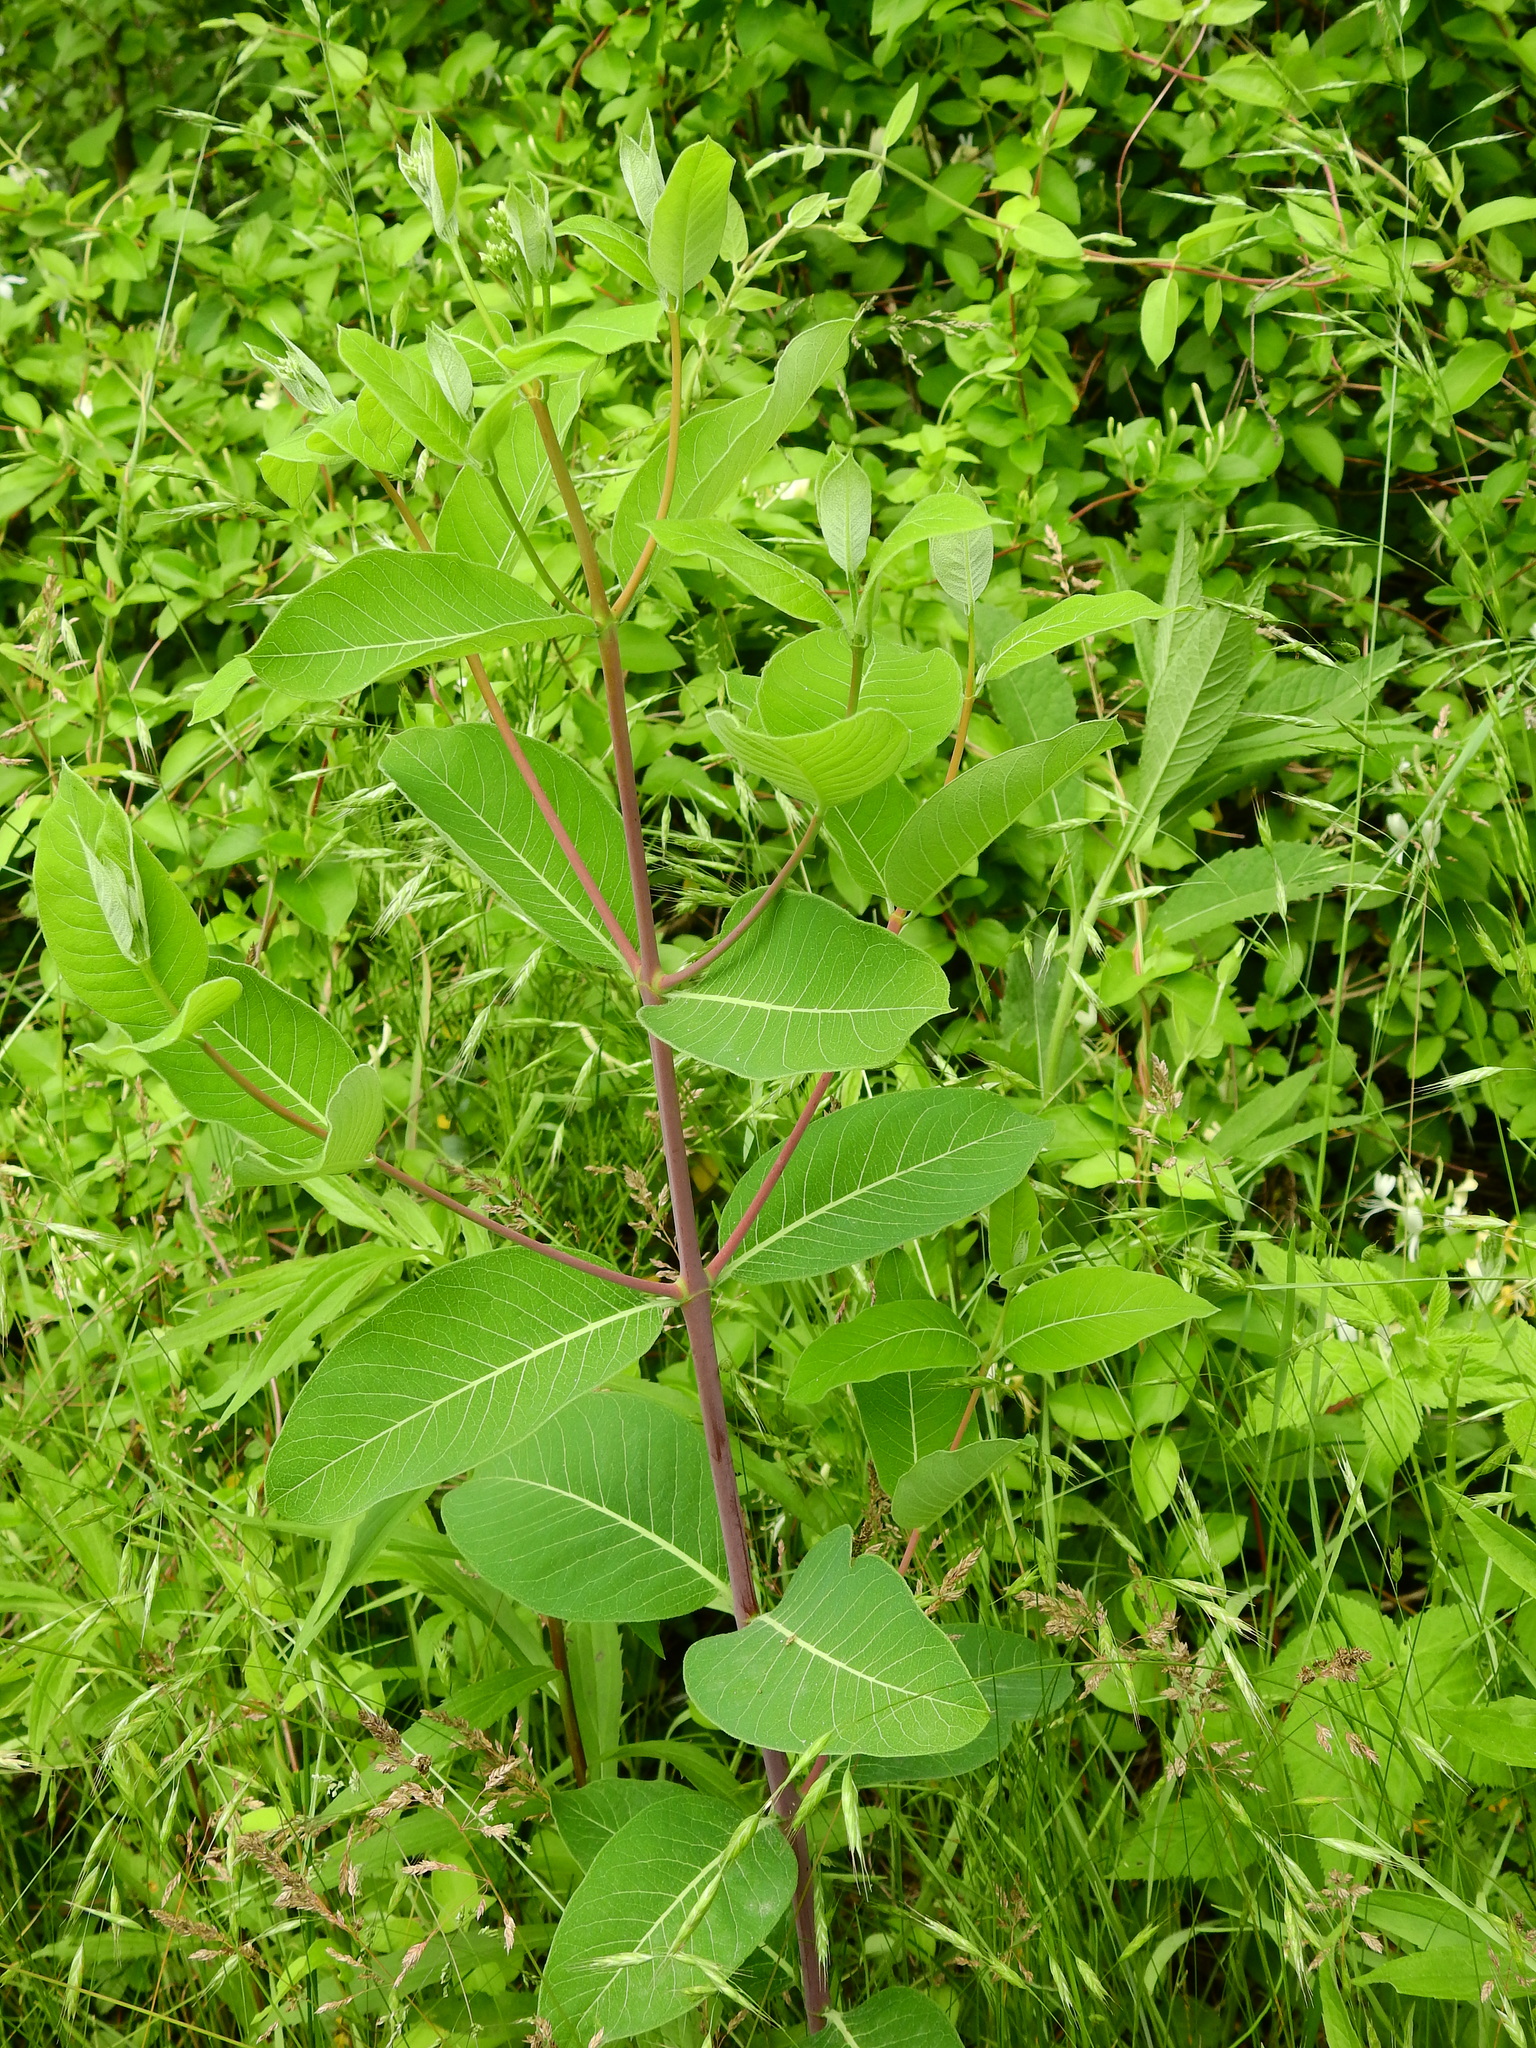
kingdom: Plantae
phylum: Tracheophyta
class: Magnoliopsida
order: Gentianales
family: Apocynaceae
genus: Apocynum
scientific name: Apocynum cannabinum
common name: Hemp dogbane
